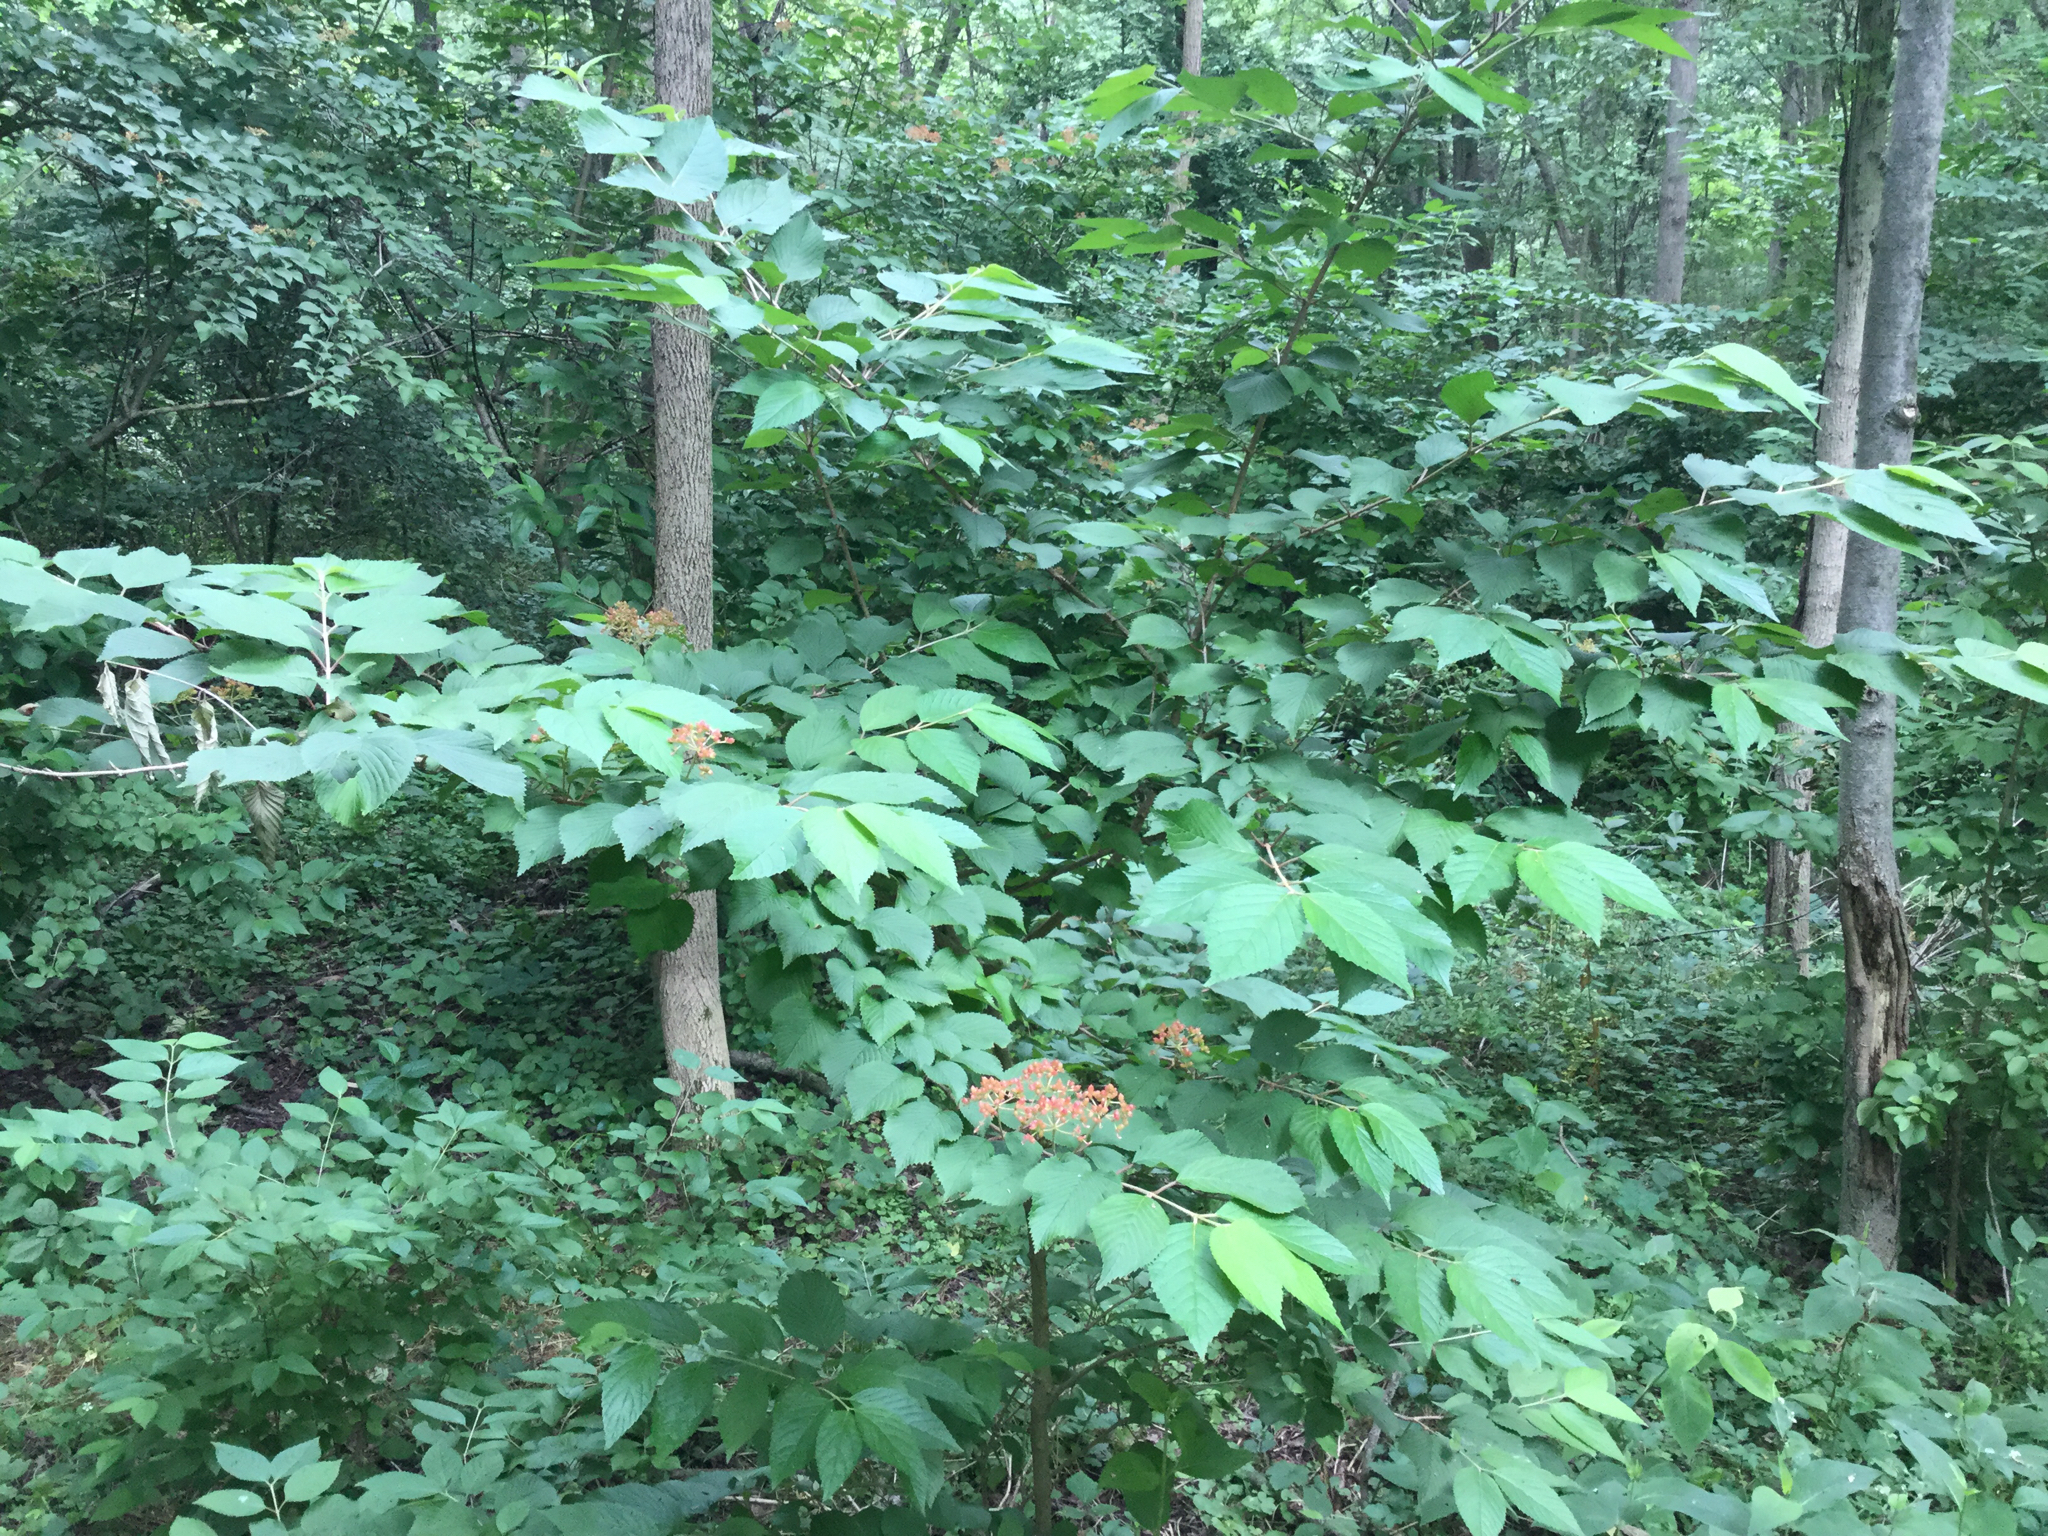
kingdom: Plantae
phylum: Tracheophyta
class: Magnoliopsida
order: Dipsacales
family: Viburnaceae
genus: Viburnum
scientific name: Viburnum plicatum
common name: Japanese snowball
